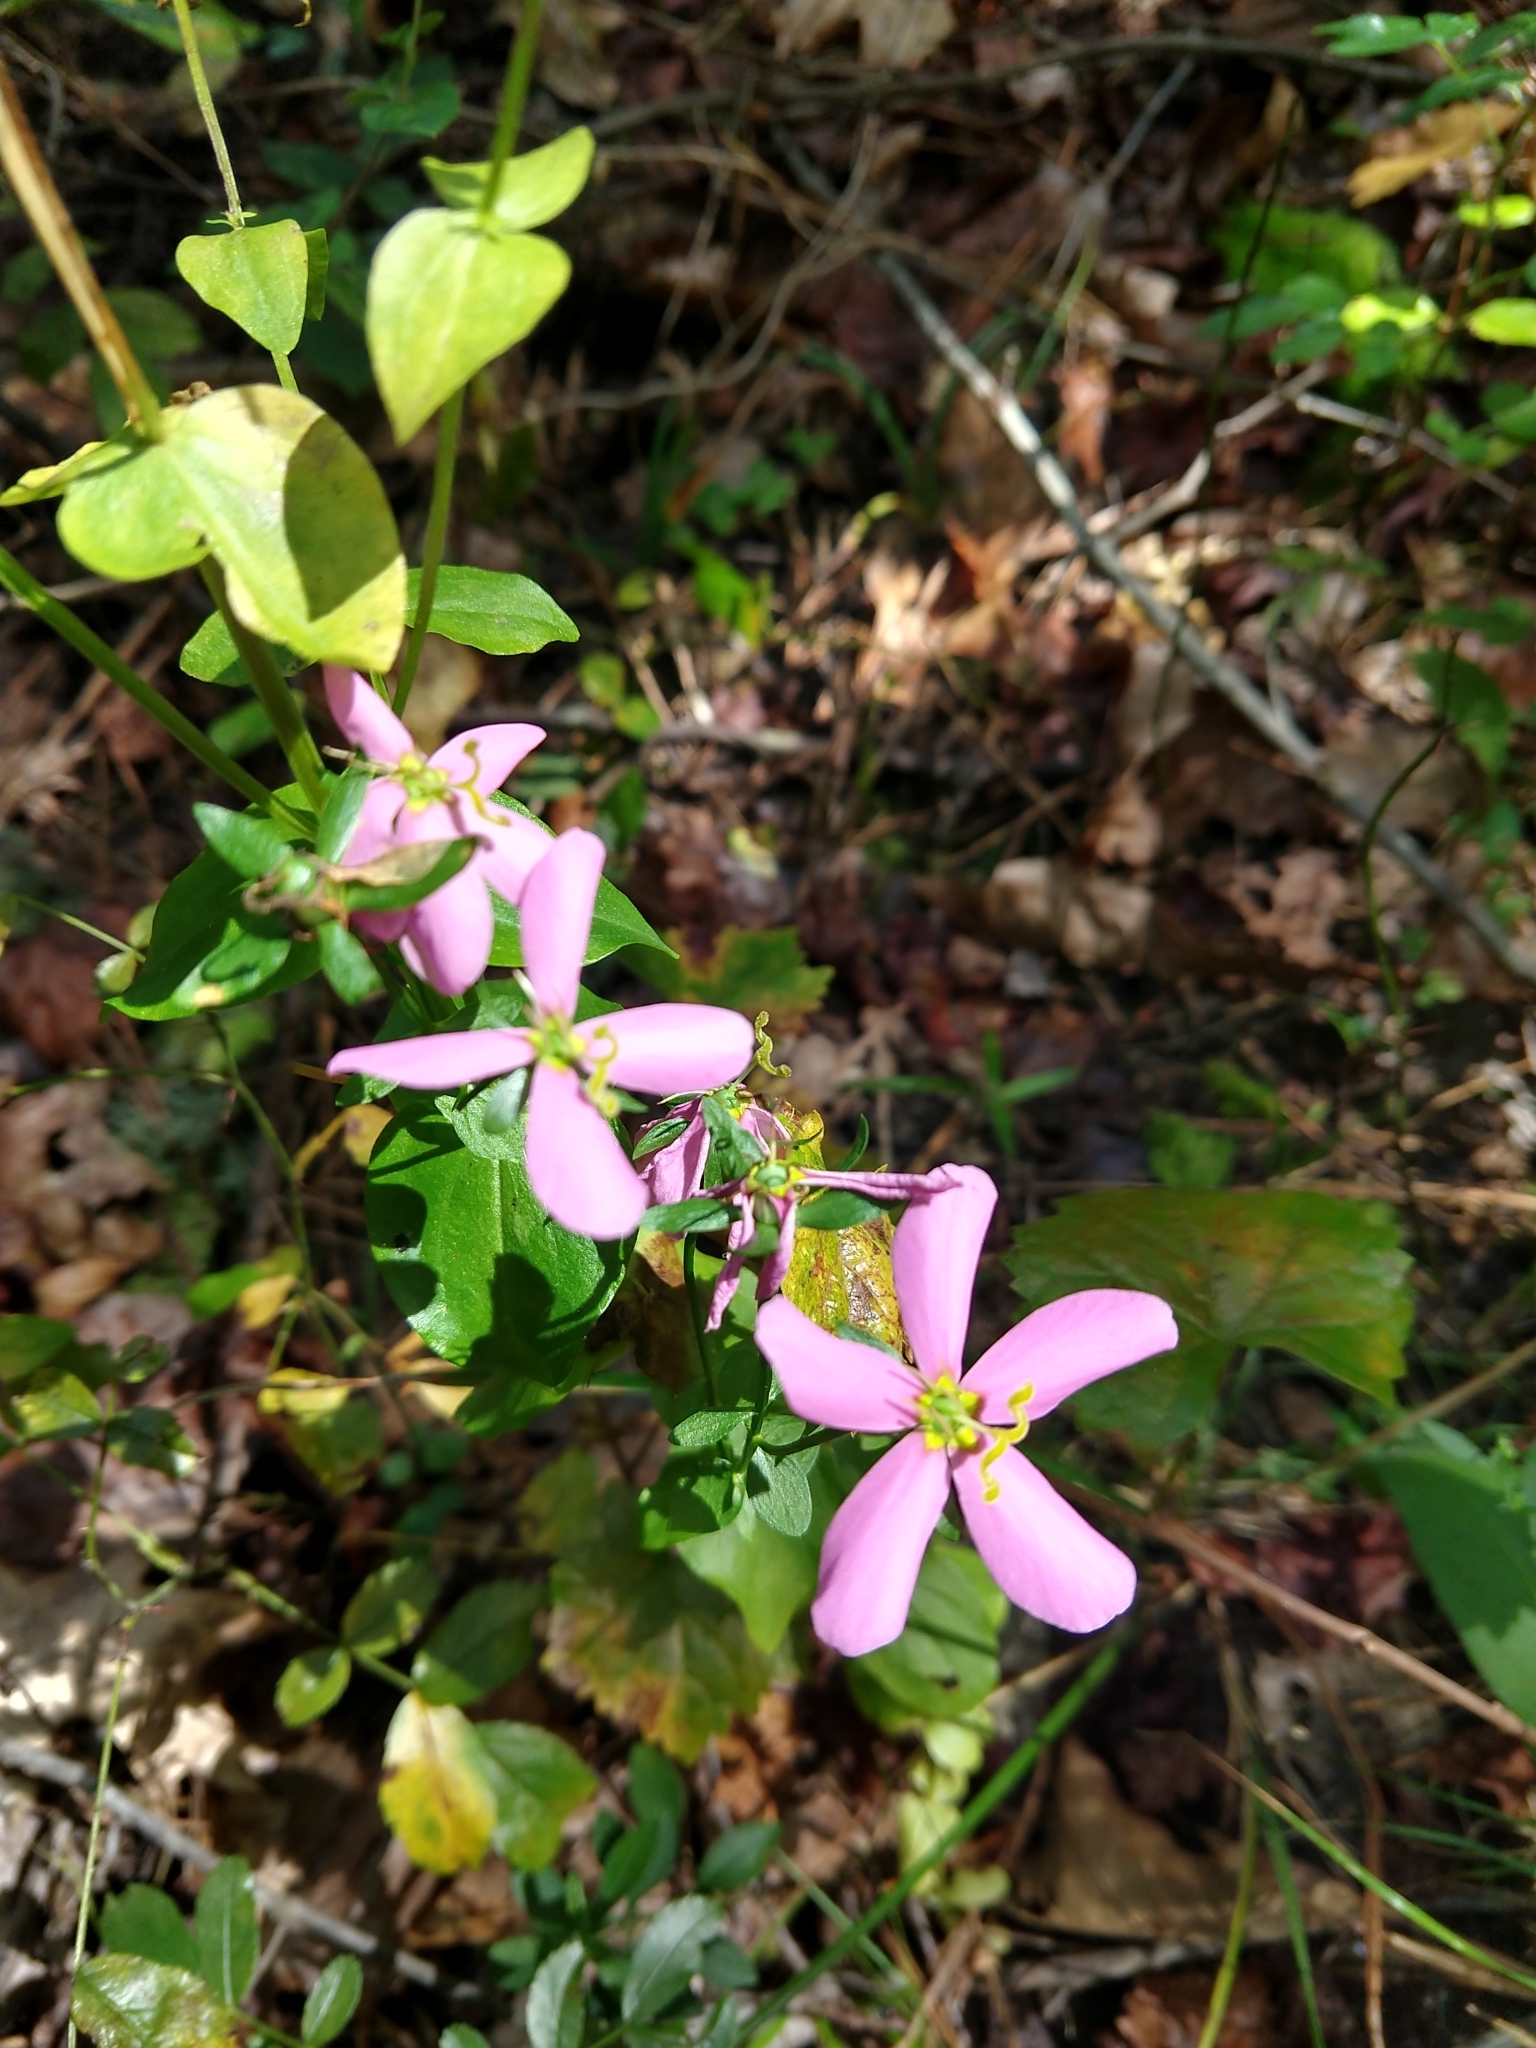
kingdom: Plantae
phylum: Tracheophyta
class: Magnoliopsida
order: Gentianales
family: Gentianaceae
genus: Sabatia
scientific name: Sabatia angularis
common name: Rose-pink
